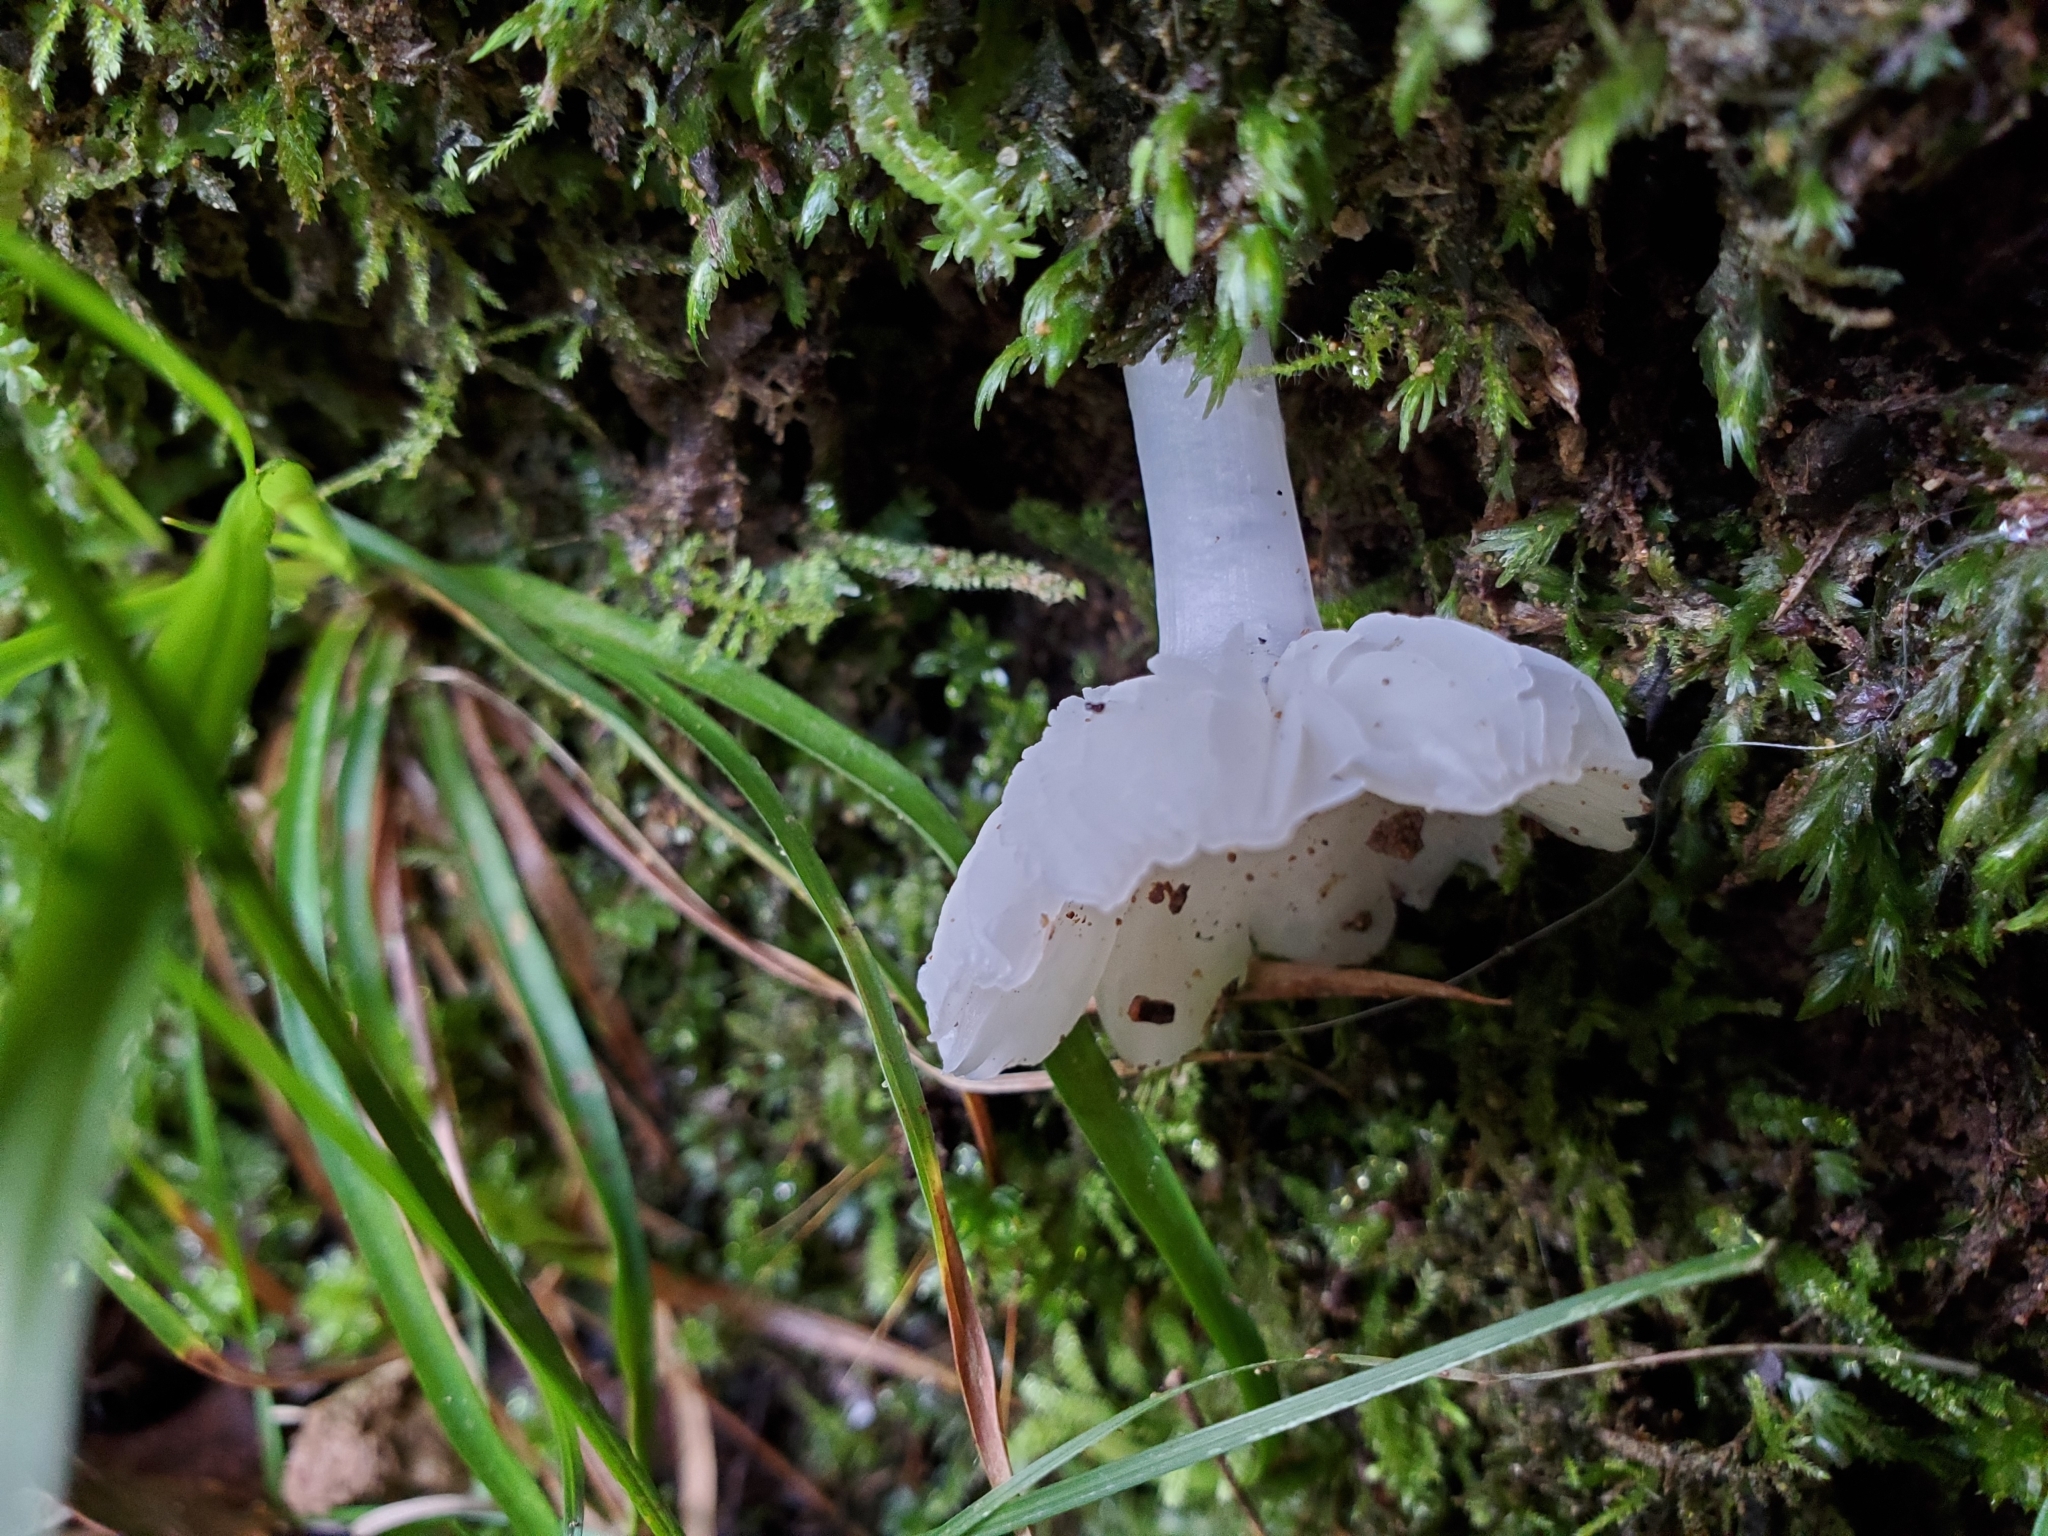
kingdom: Fungi
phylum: Basidiomycota
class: Agaricomycetes
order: Agaricales
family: Hygrophoraceae
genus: Humidicutis
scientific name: Humidicutis mavis
